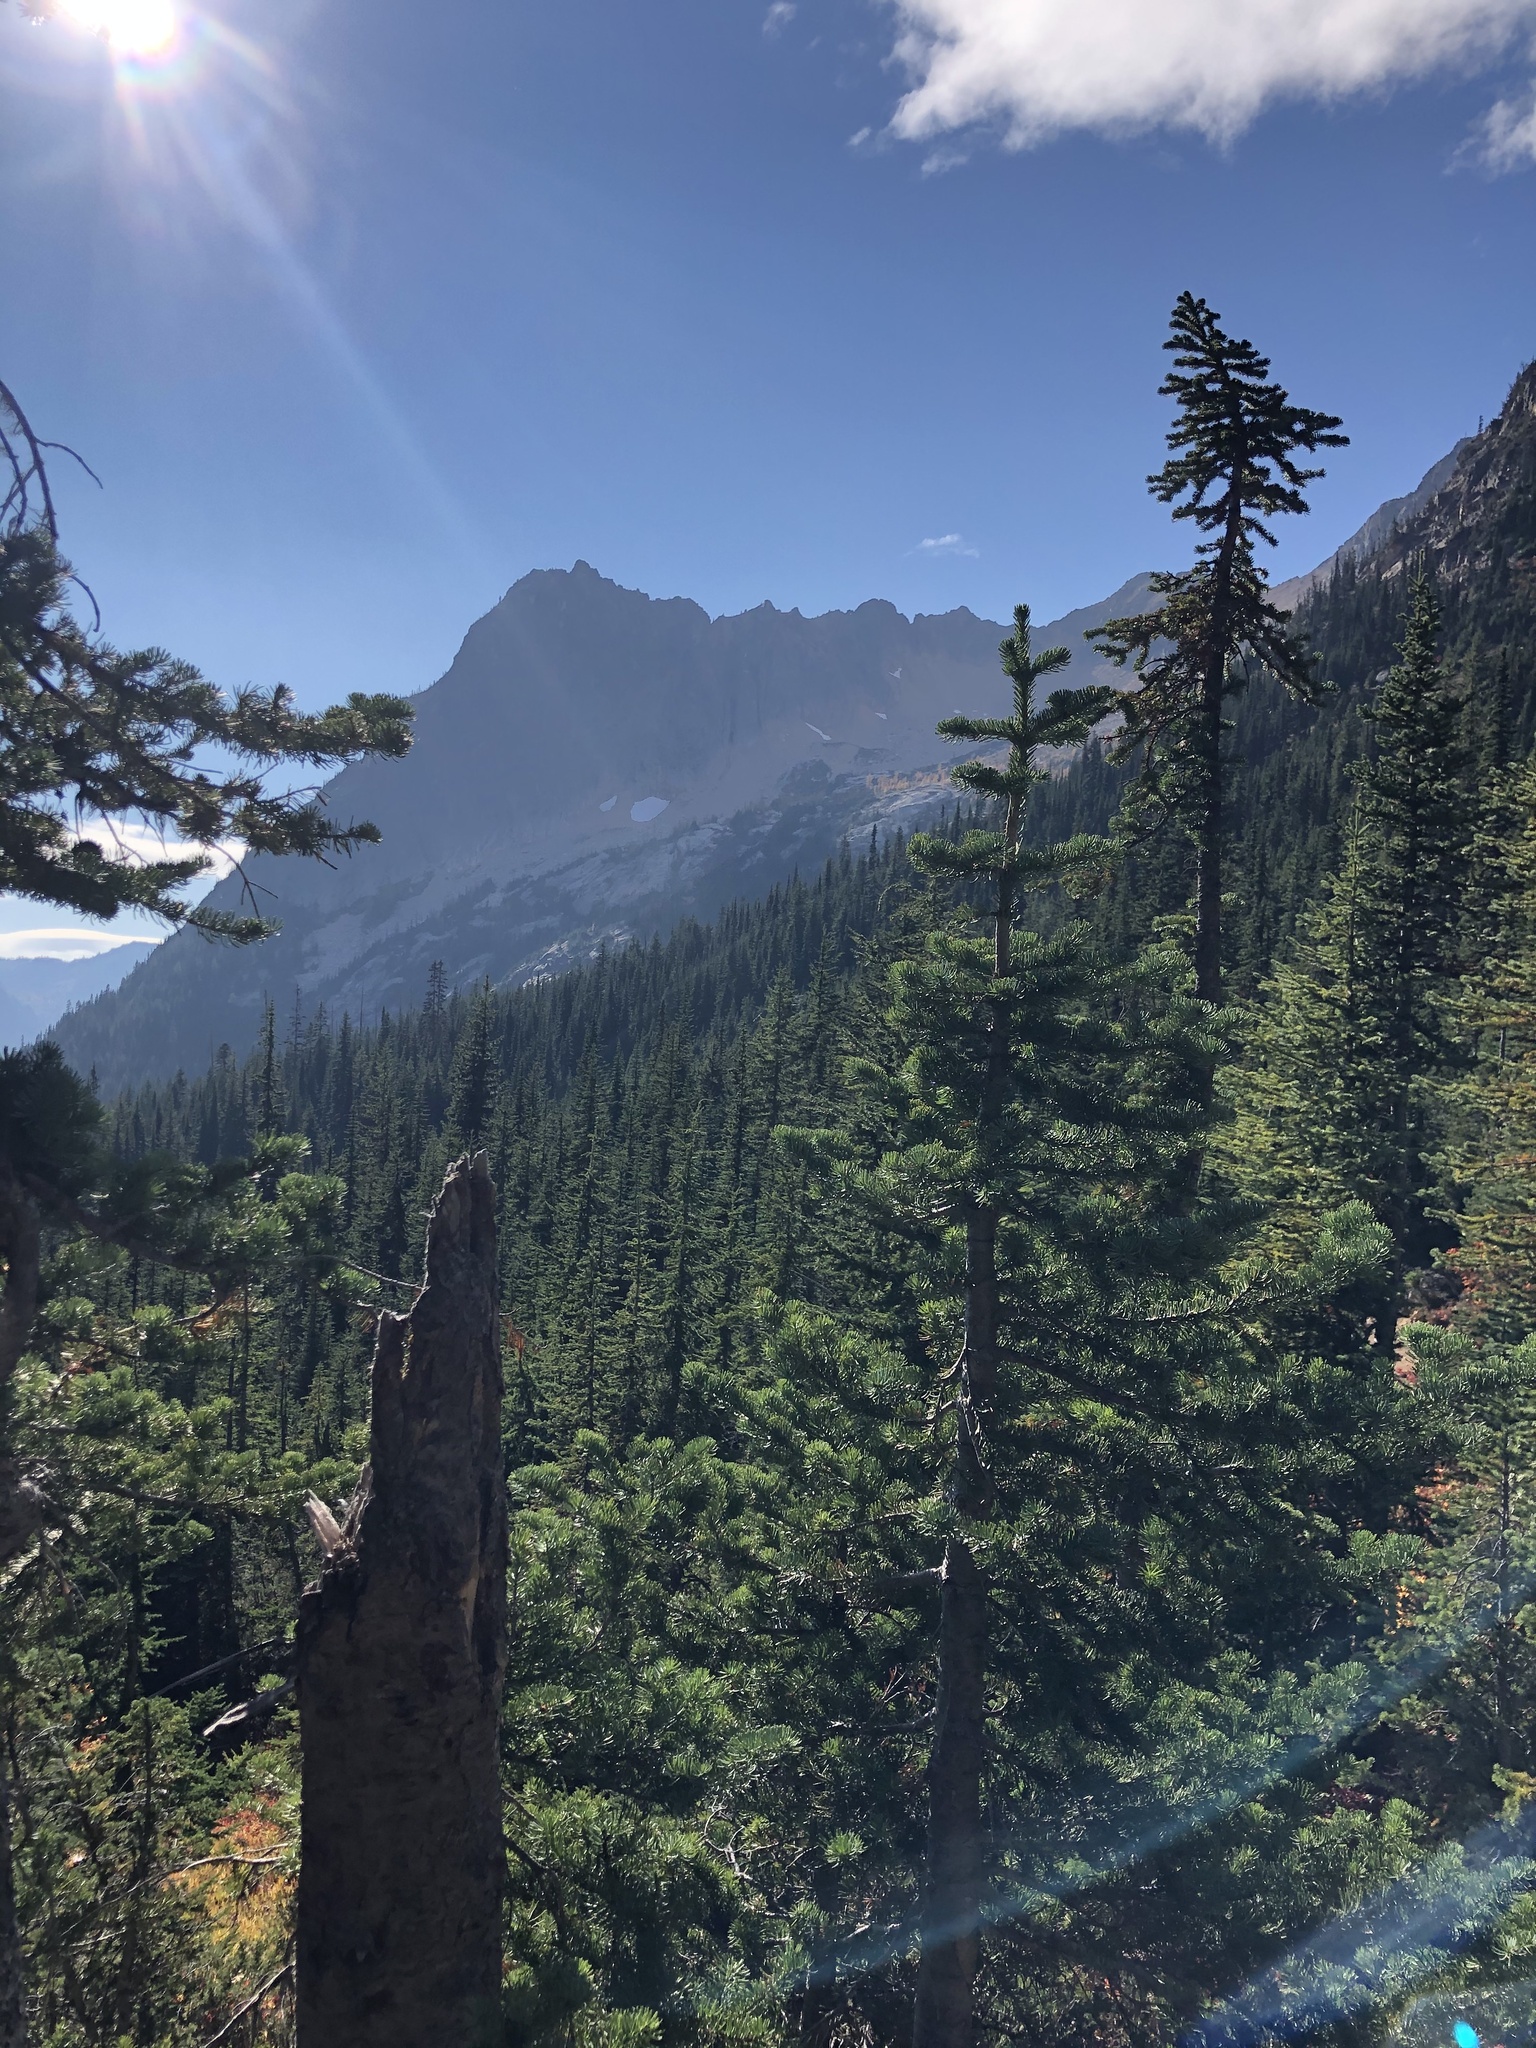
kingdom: Plantae
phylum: Tracheophyta
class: Pinopsida
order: Pinales
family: Pinaceae
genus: Abies
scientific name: Abies lasiocarpa
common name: Subalpine fir
